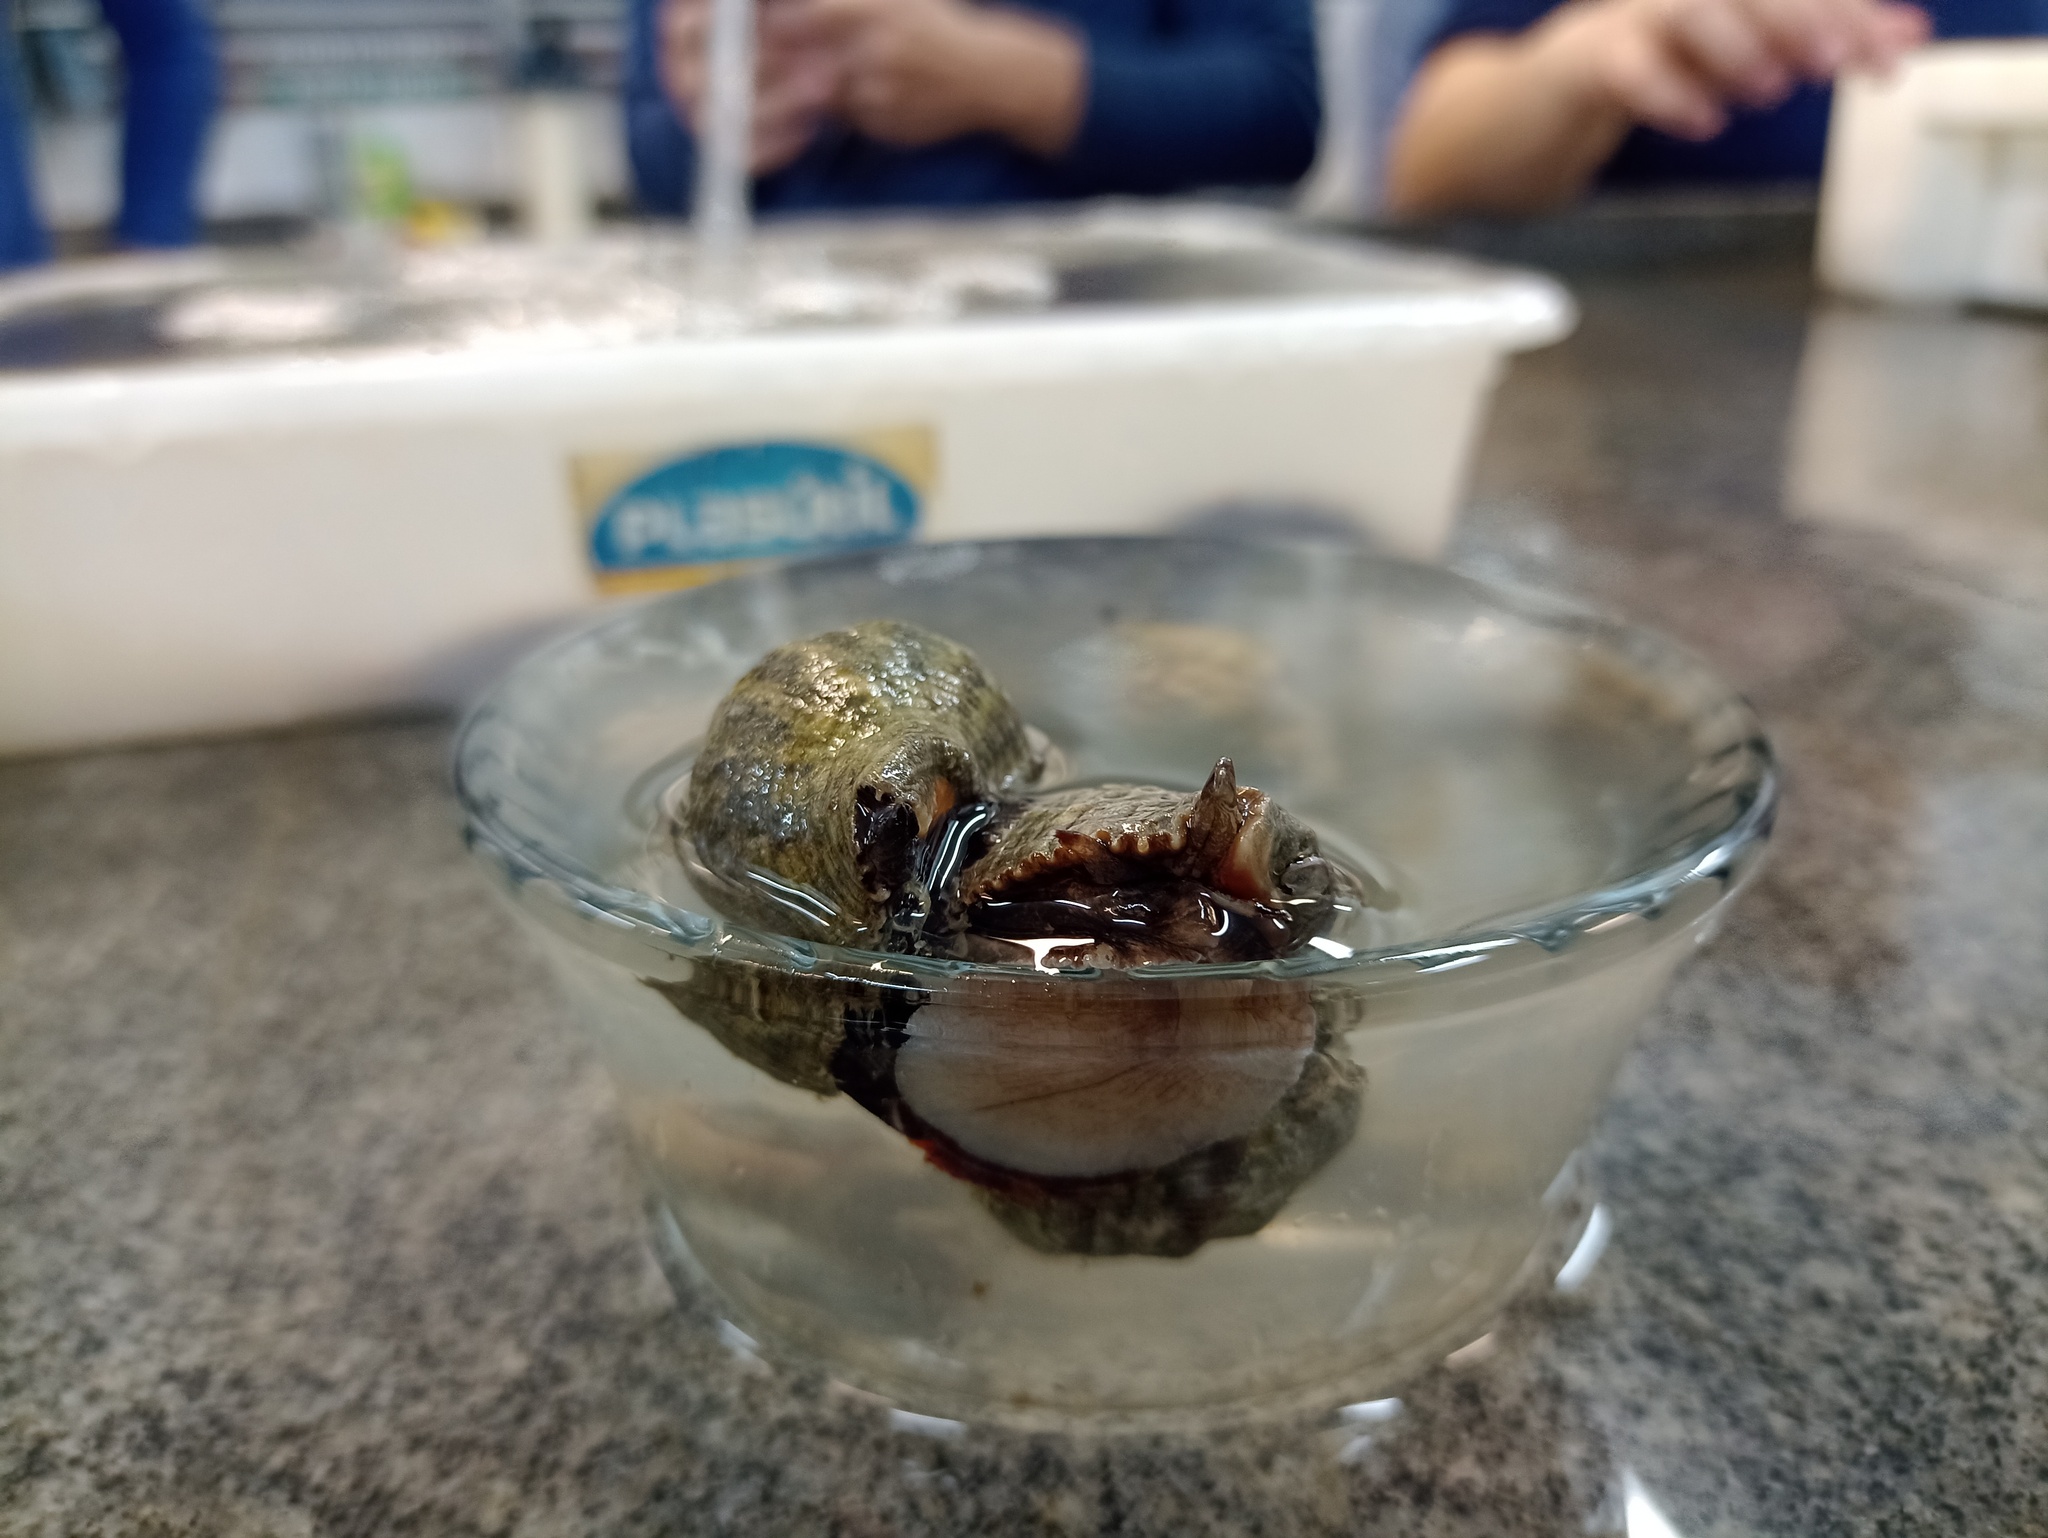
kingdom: Animalia
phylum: Mollusca
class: Gastropoda
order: Neogastropoda
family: Muricidae
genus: Stramonita
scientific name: Stramonita brasiliensis
